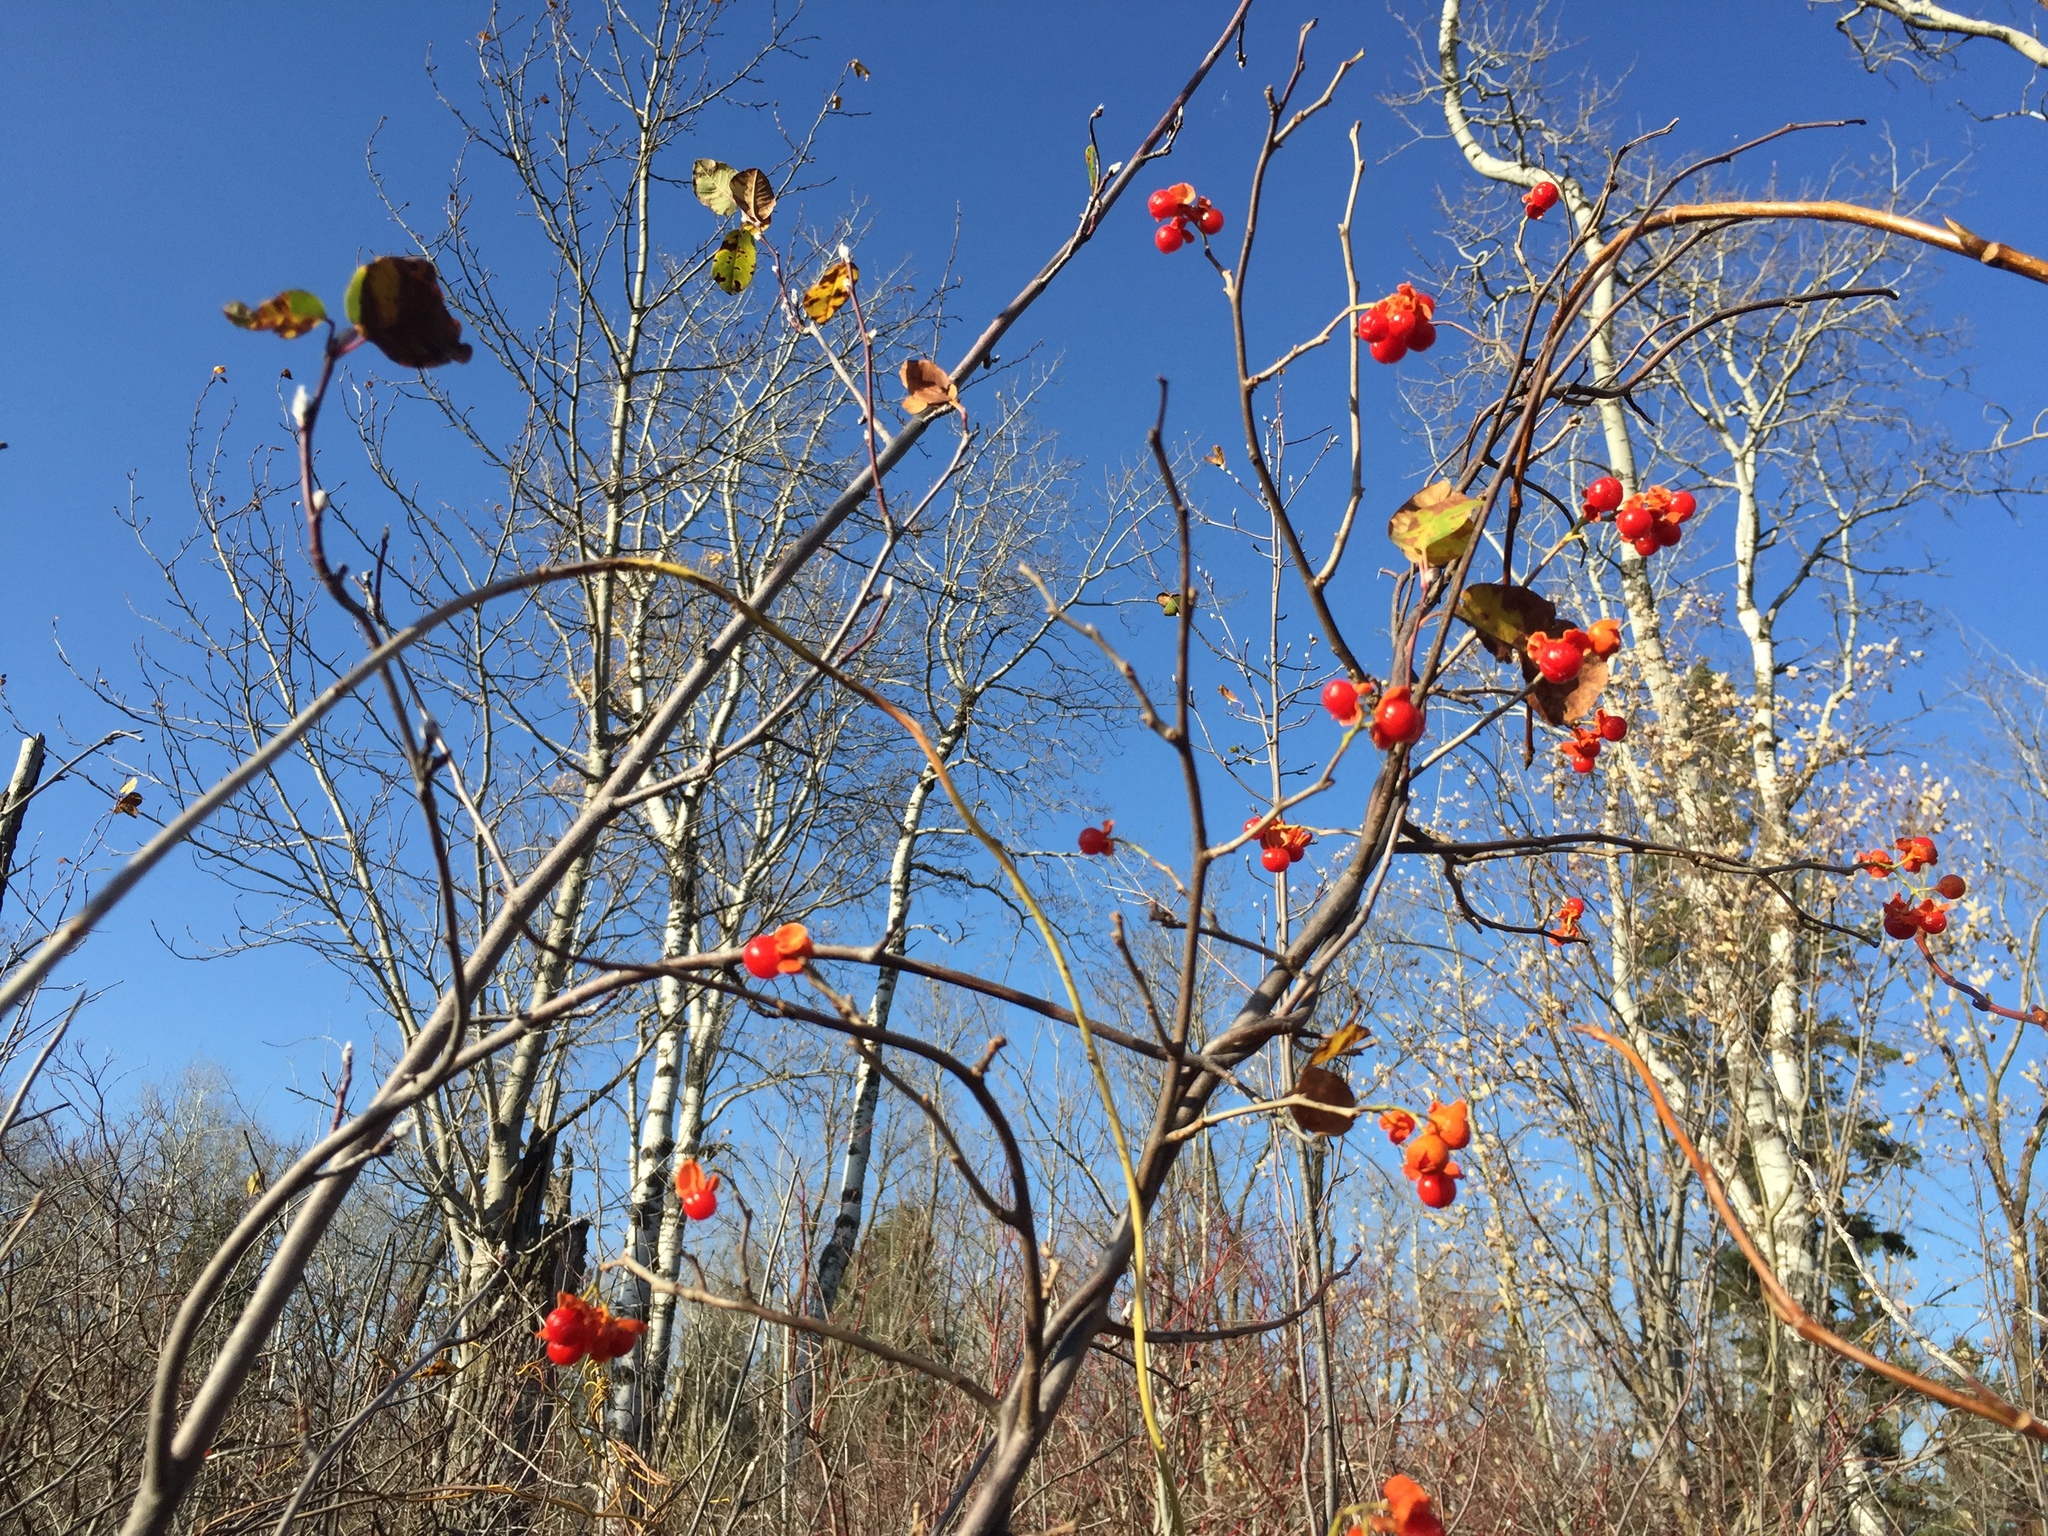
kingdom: Plantae
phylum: Tracheophyta
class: Magnoliopsida
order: Celastrales
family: Celastraceae
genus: Celastrus
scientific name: Celastrus scandens
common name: American bittersweet
